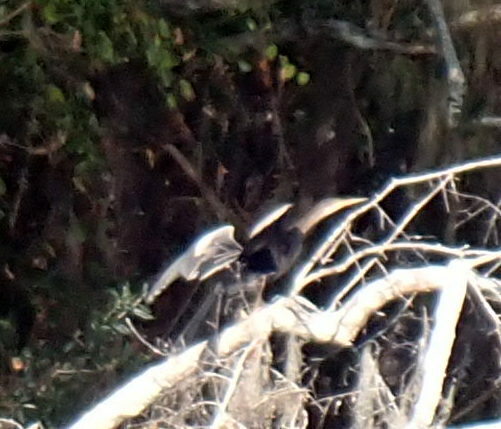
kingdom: Animalia
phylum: Chordata
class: Aves
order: Suliformes
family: Anhingidae
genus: Anhinga
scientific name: Anhinga anhinga
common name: Anhinga
